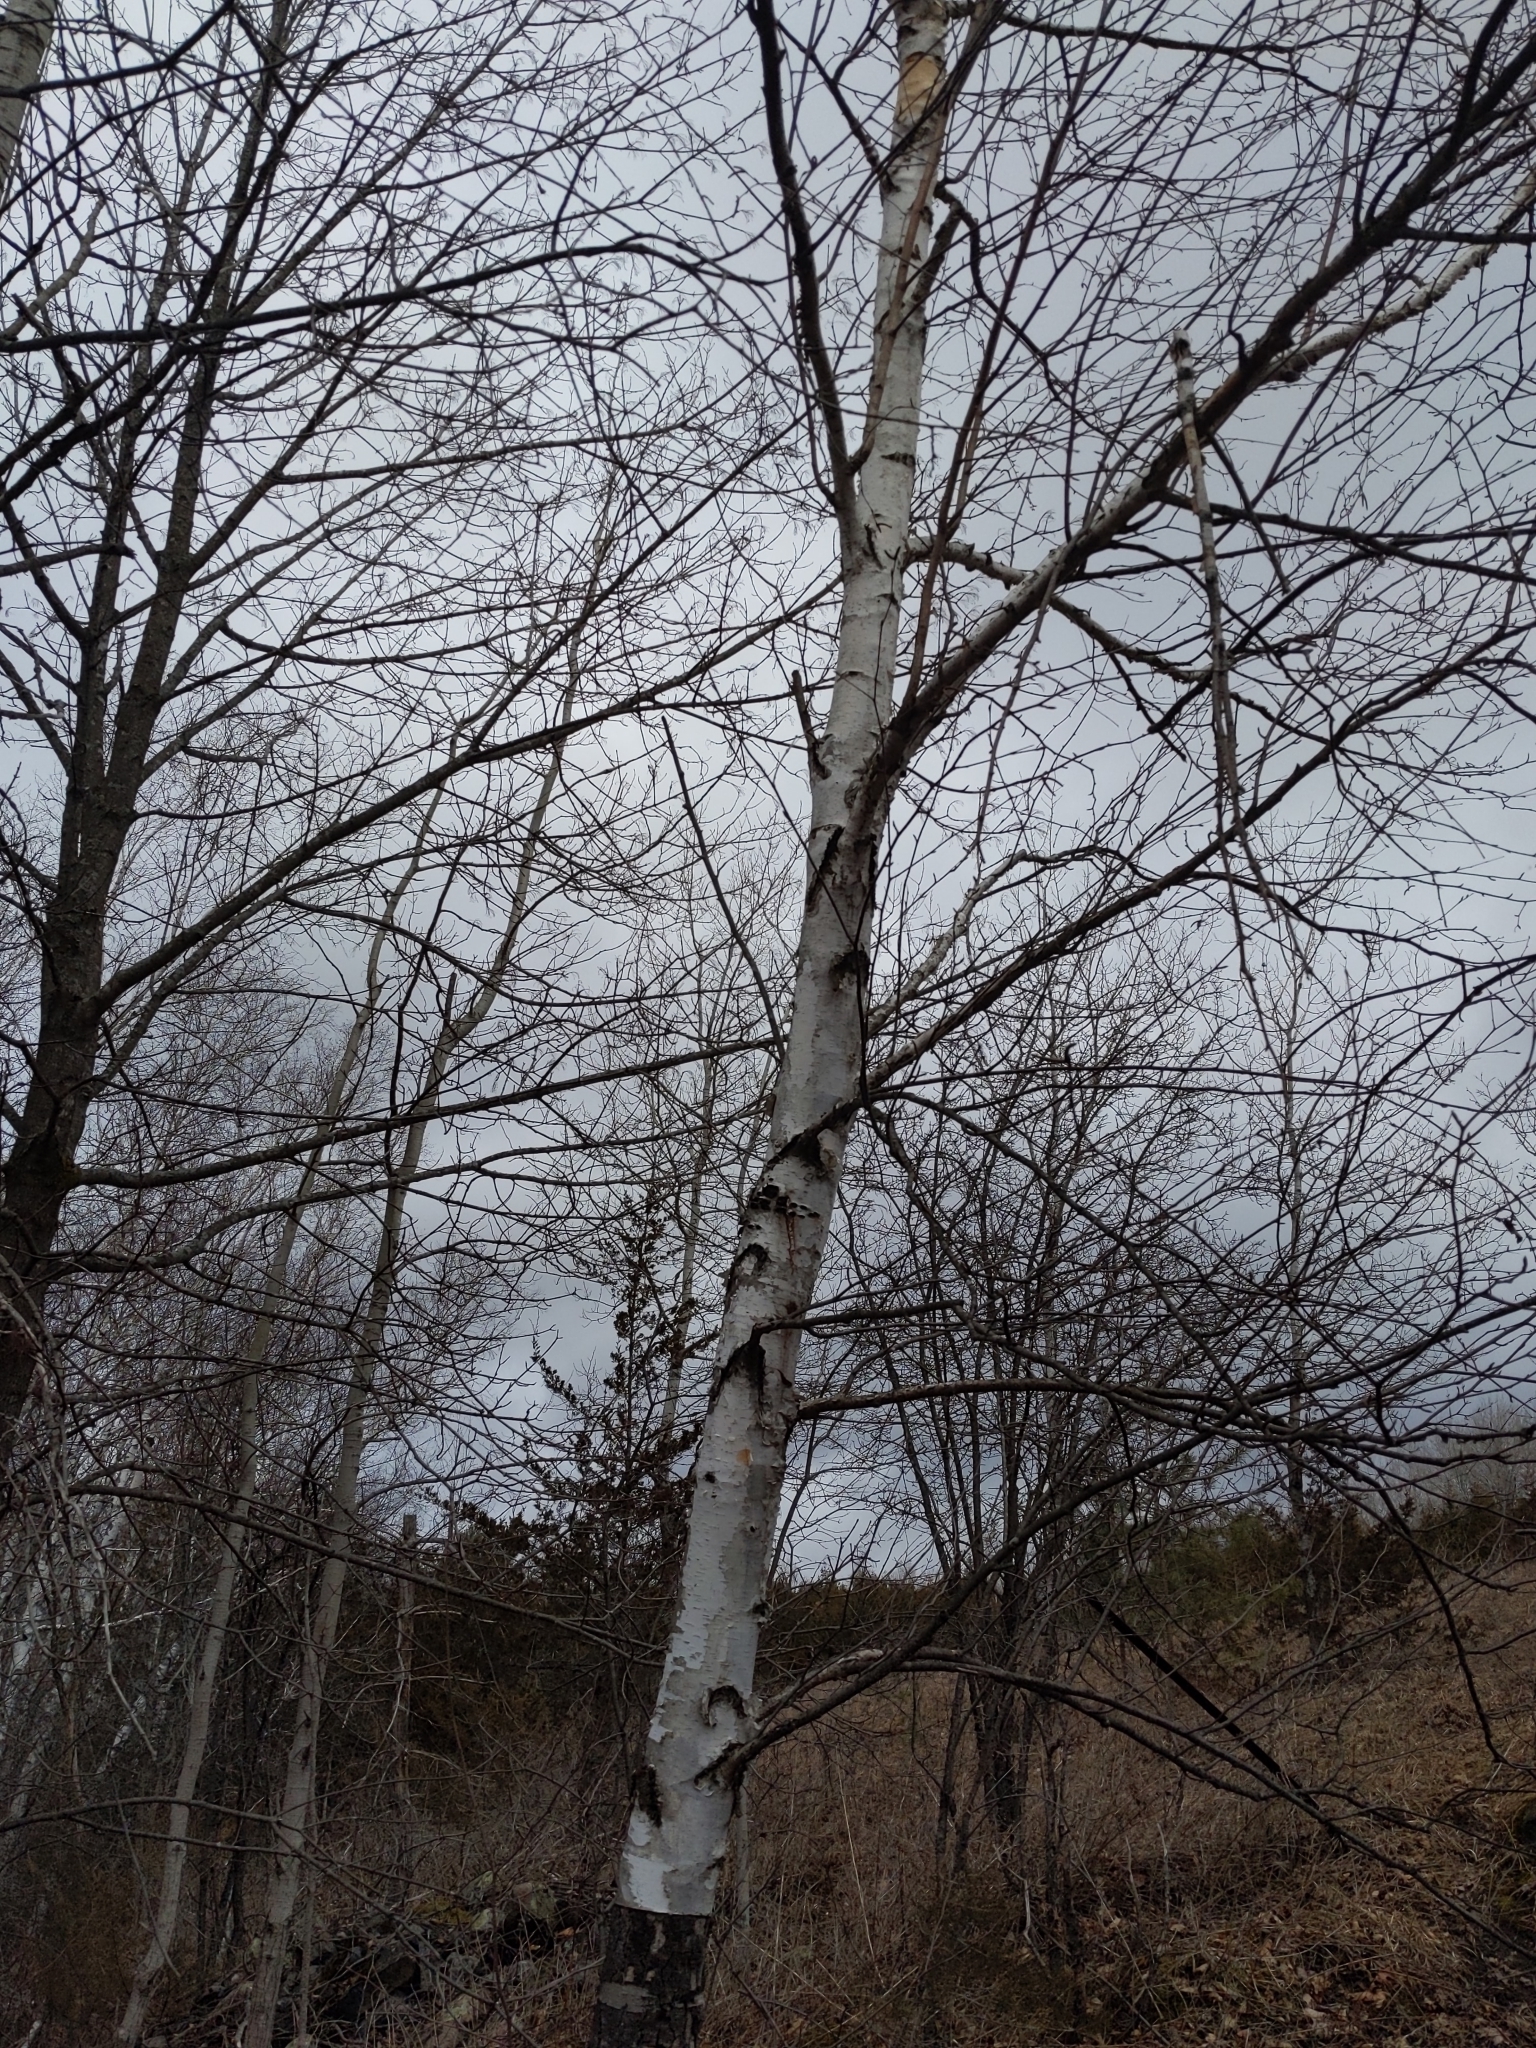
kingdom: Plantae
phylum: Tracheophyta
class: Magnoliopsida
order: Fagales
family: Betulaceae
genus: Betula
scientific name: Betula papyrifera
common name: Paper birch
